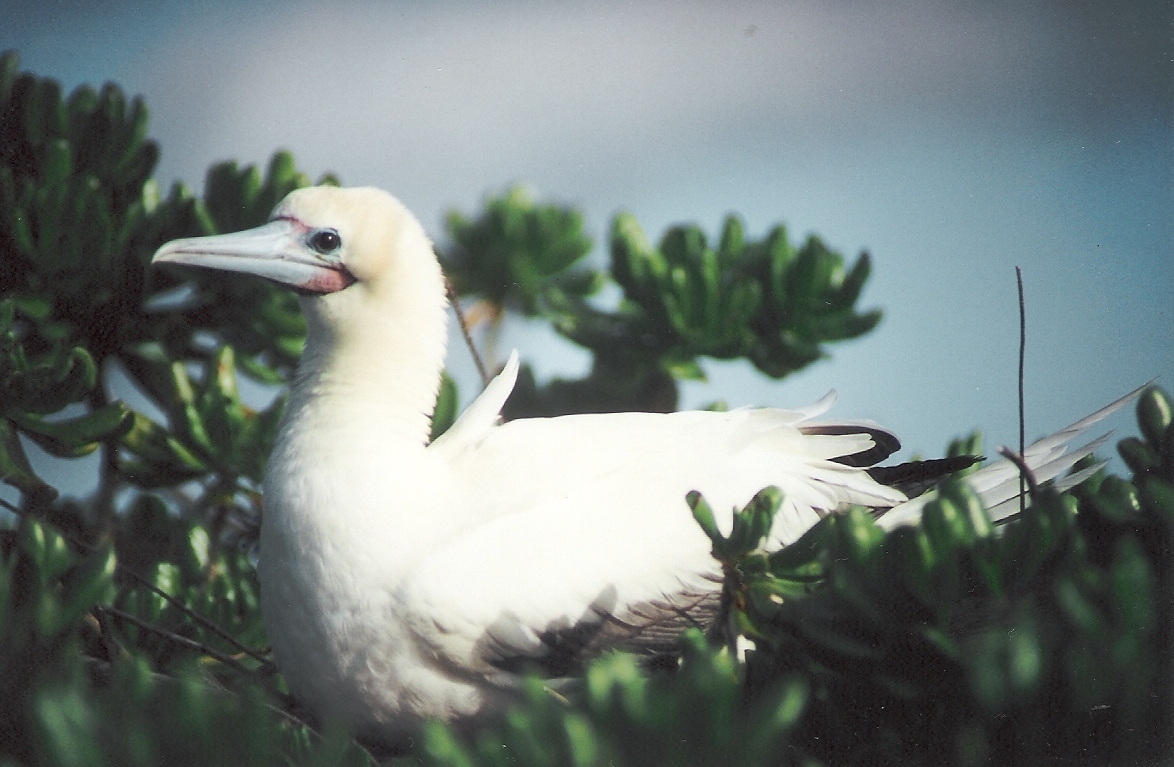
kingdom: Animalia
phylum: Chordata
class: Aves
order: Suliformes
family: Sulidae
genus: Sula
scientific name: Sula sula
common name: Red-footed booby
